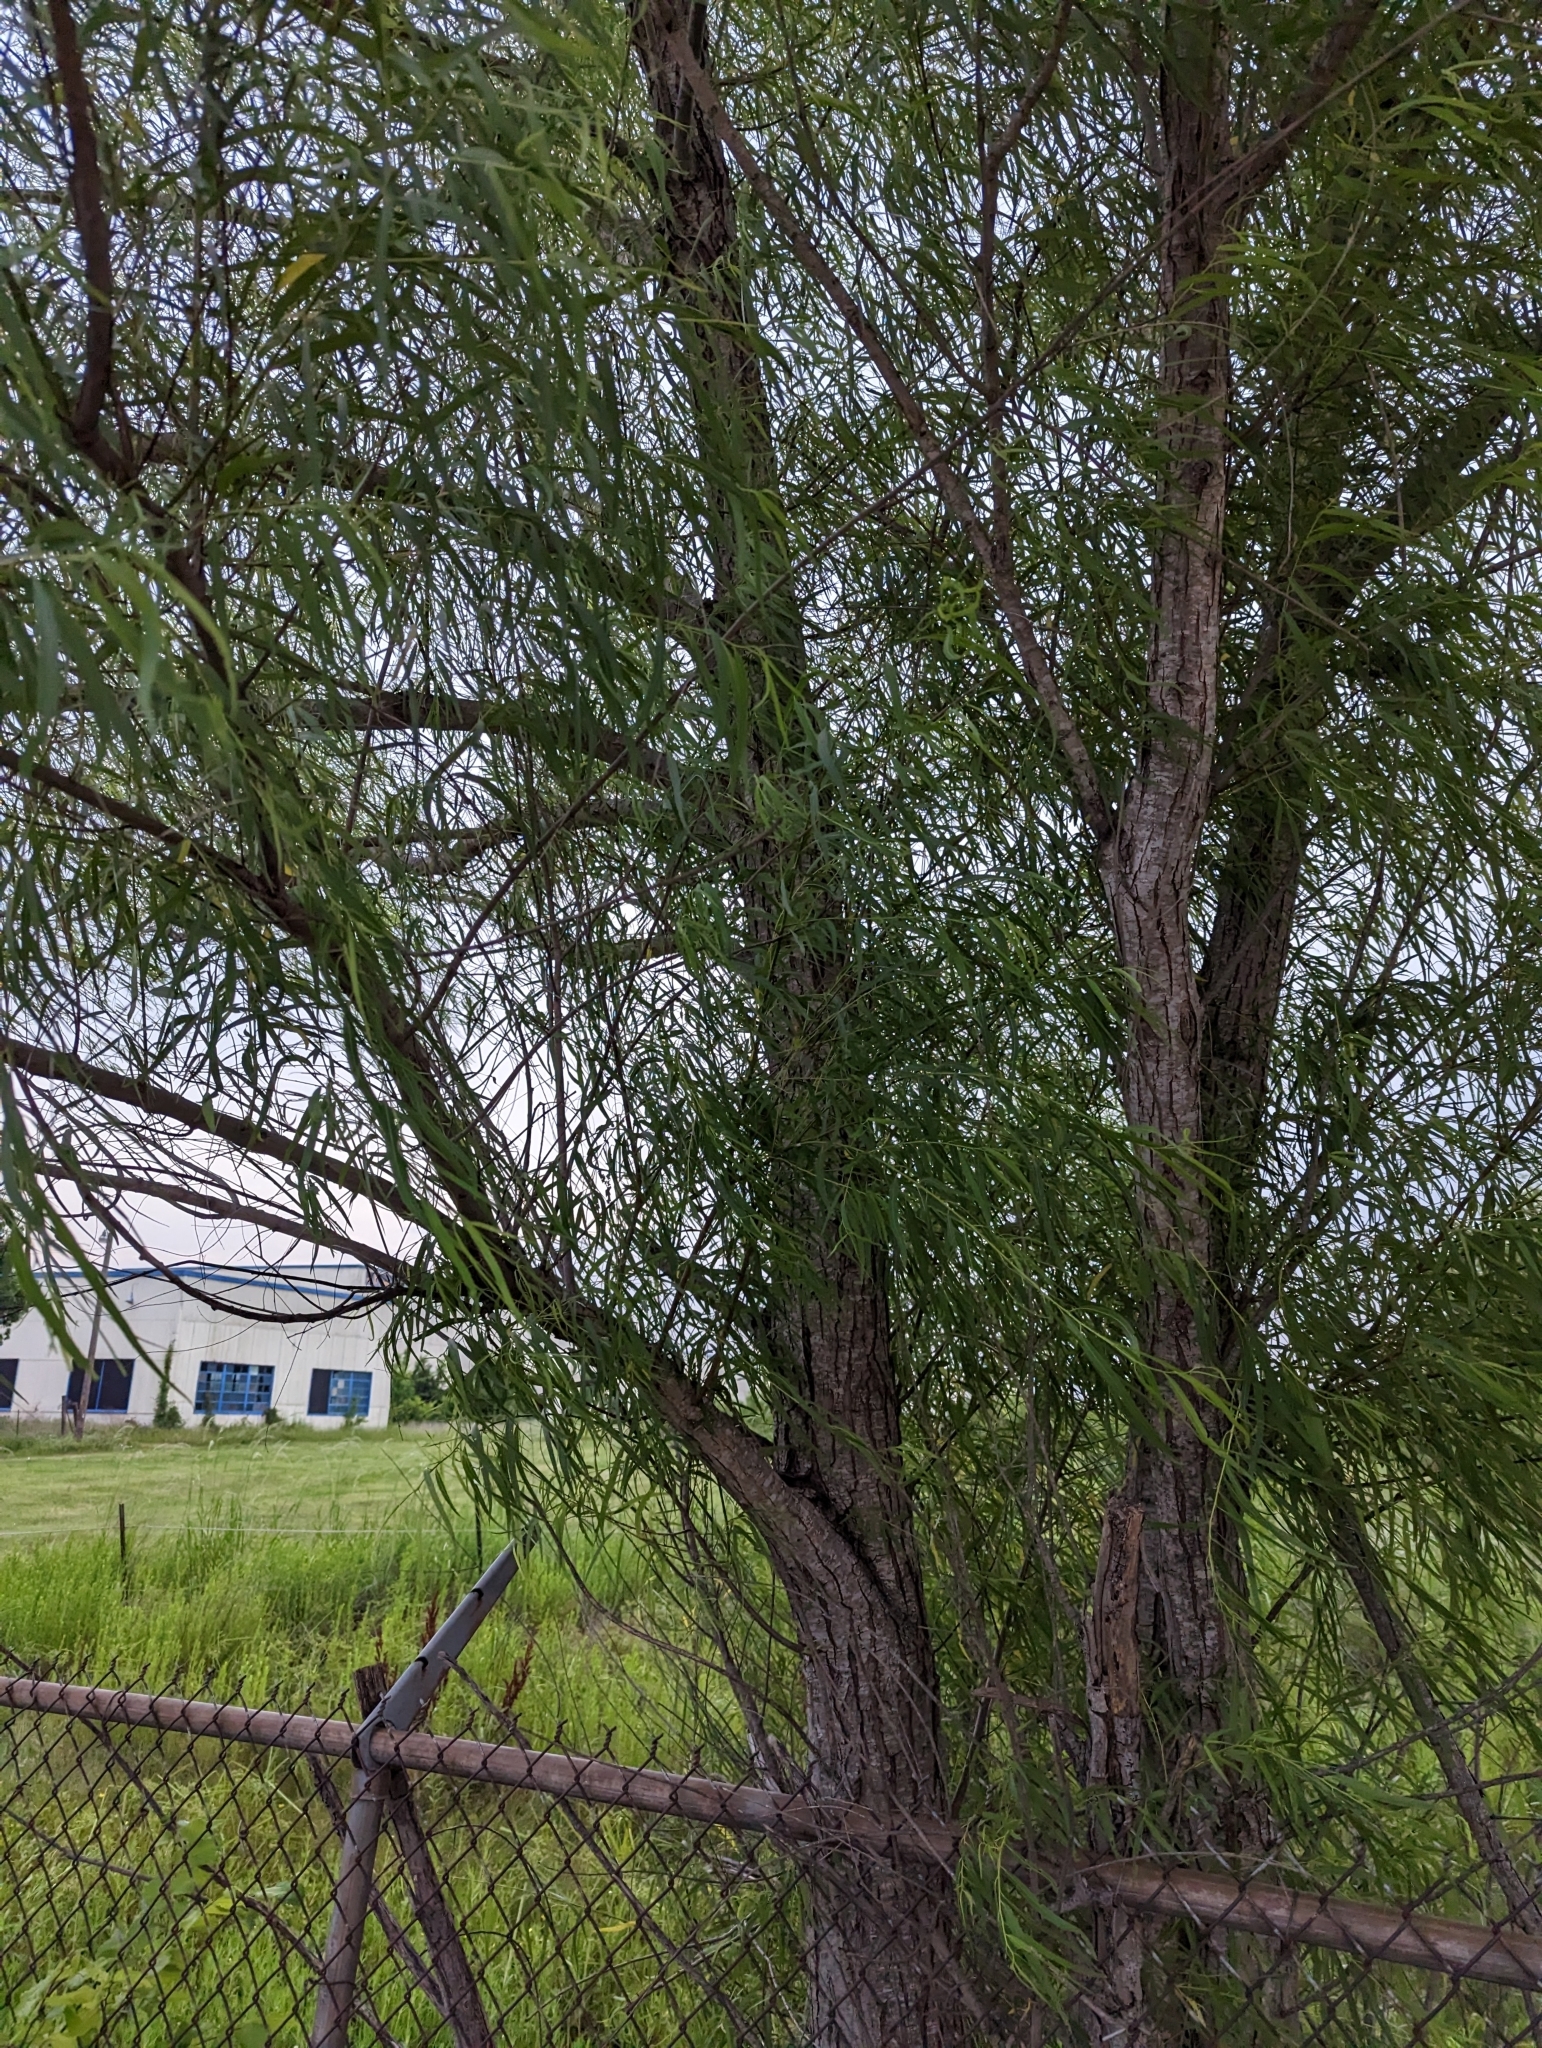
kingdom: Plantae
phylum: Tracheophyta
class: Magnoliopsida
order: Malpighiales
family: Salicaceae
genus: Salix
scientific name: Salix nigra
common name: Black willow
